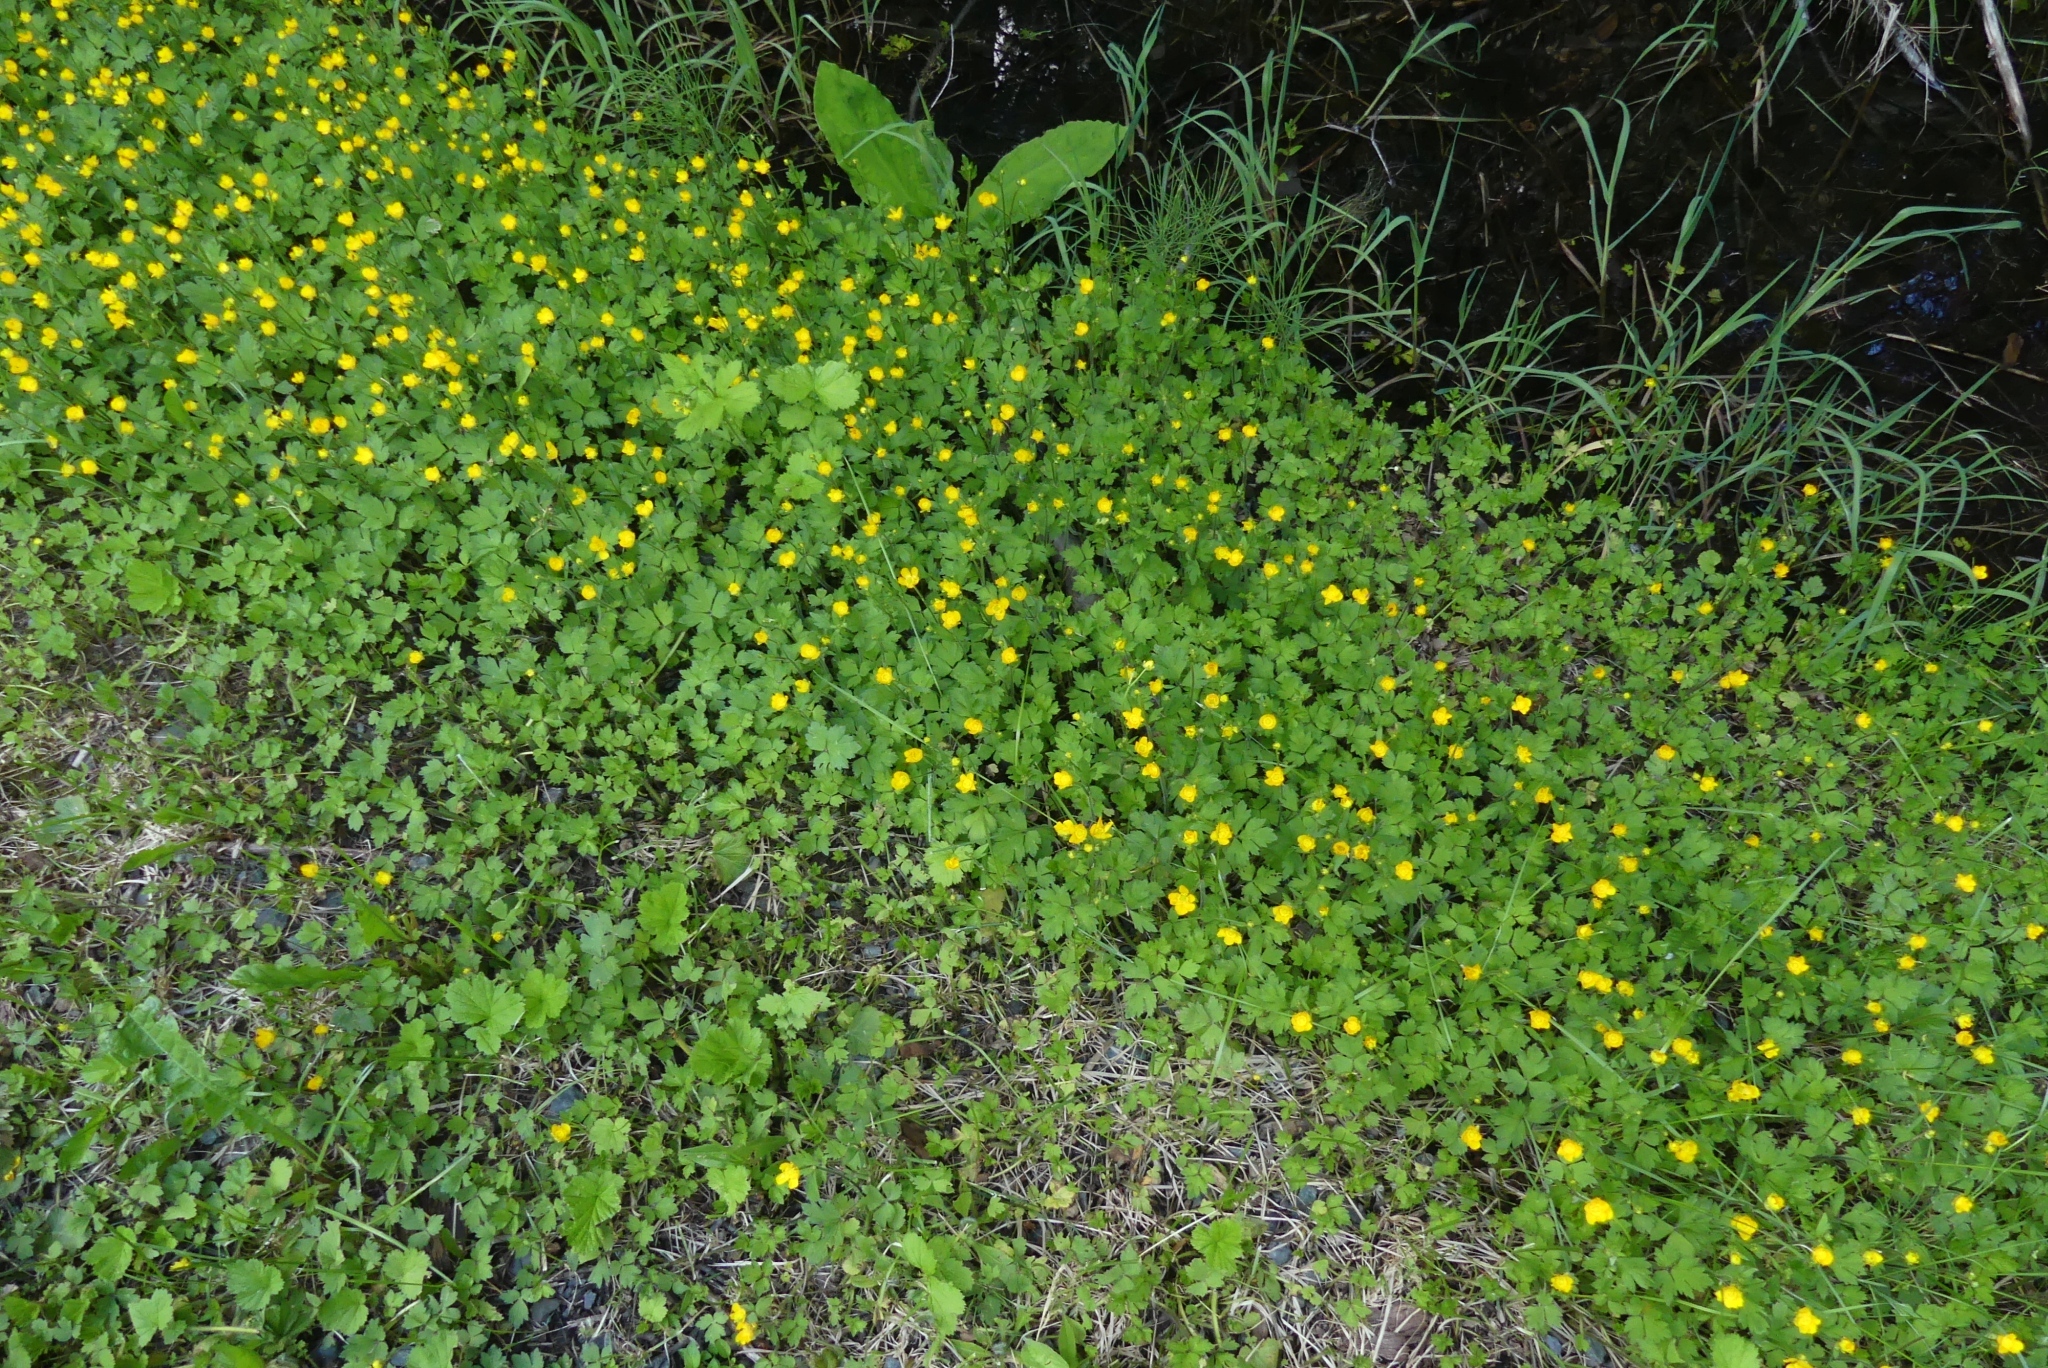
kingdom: Plantae
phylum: Tracheophyta
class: Magnoliopsida
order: Ranunculales
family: Ranunculaceae
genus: Ranunculus
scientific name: Ranunculus repens
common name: Creeping buttercup
